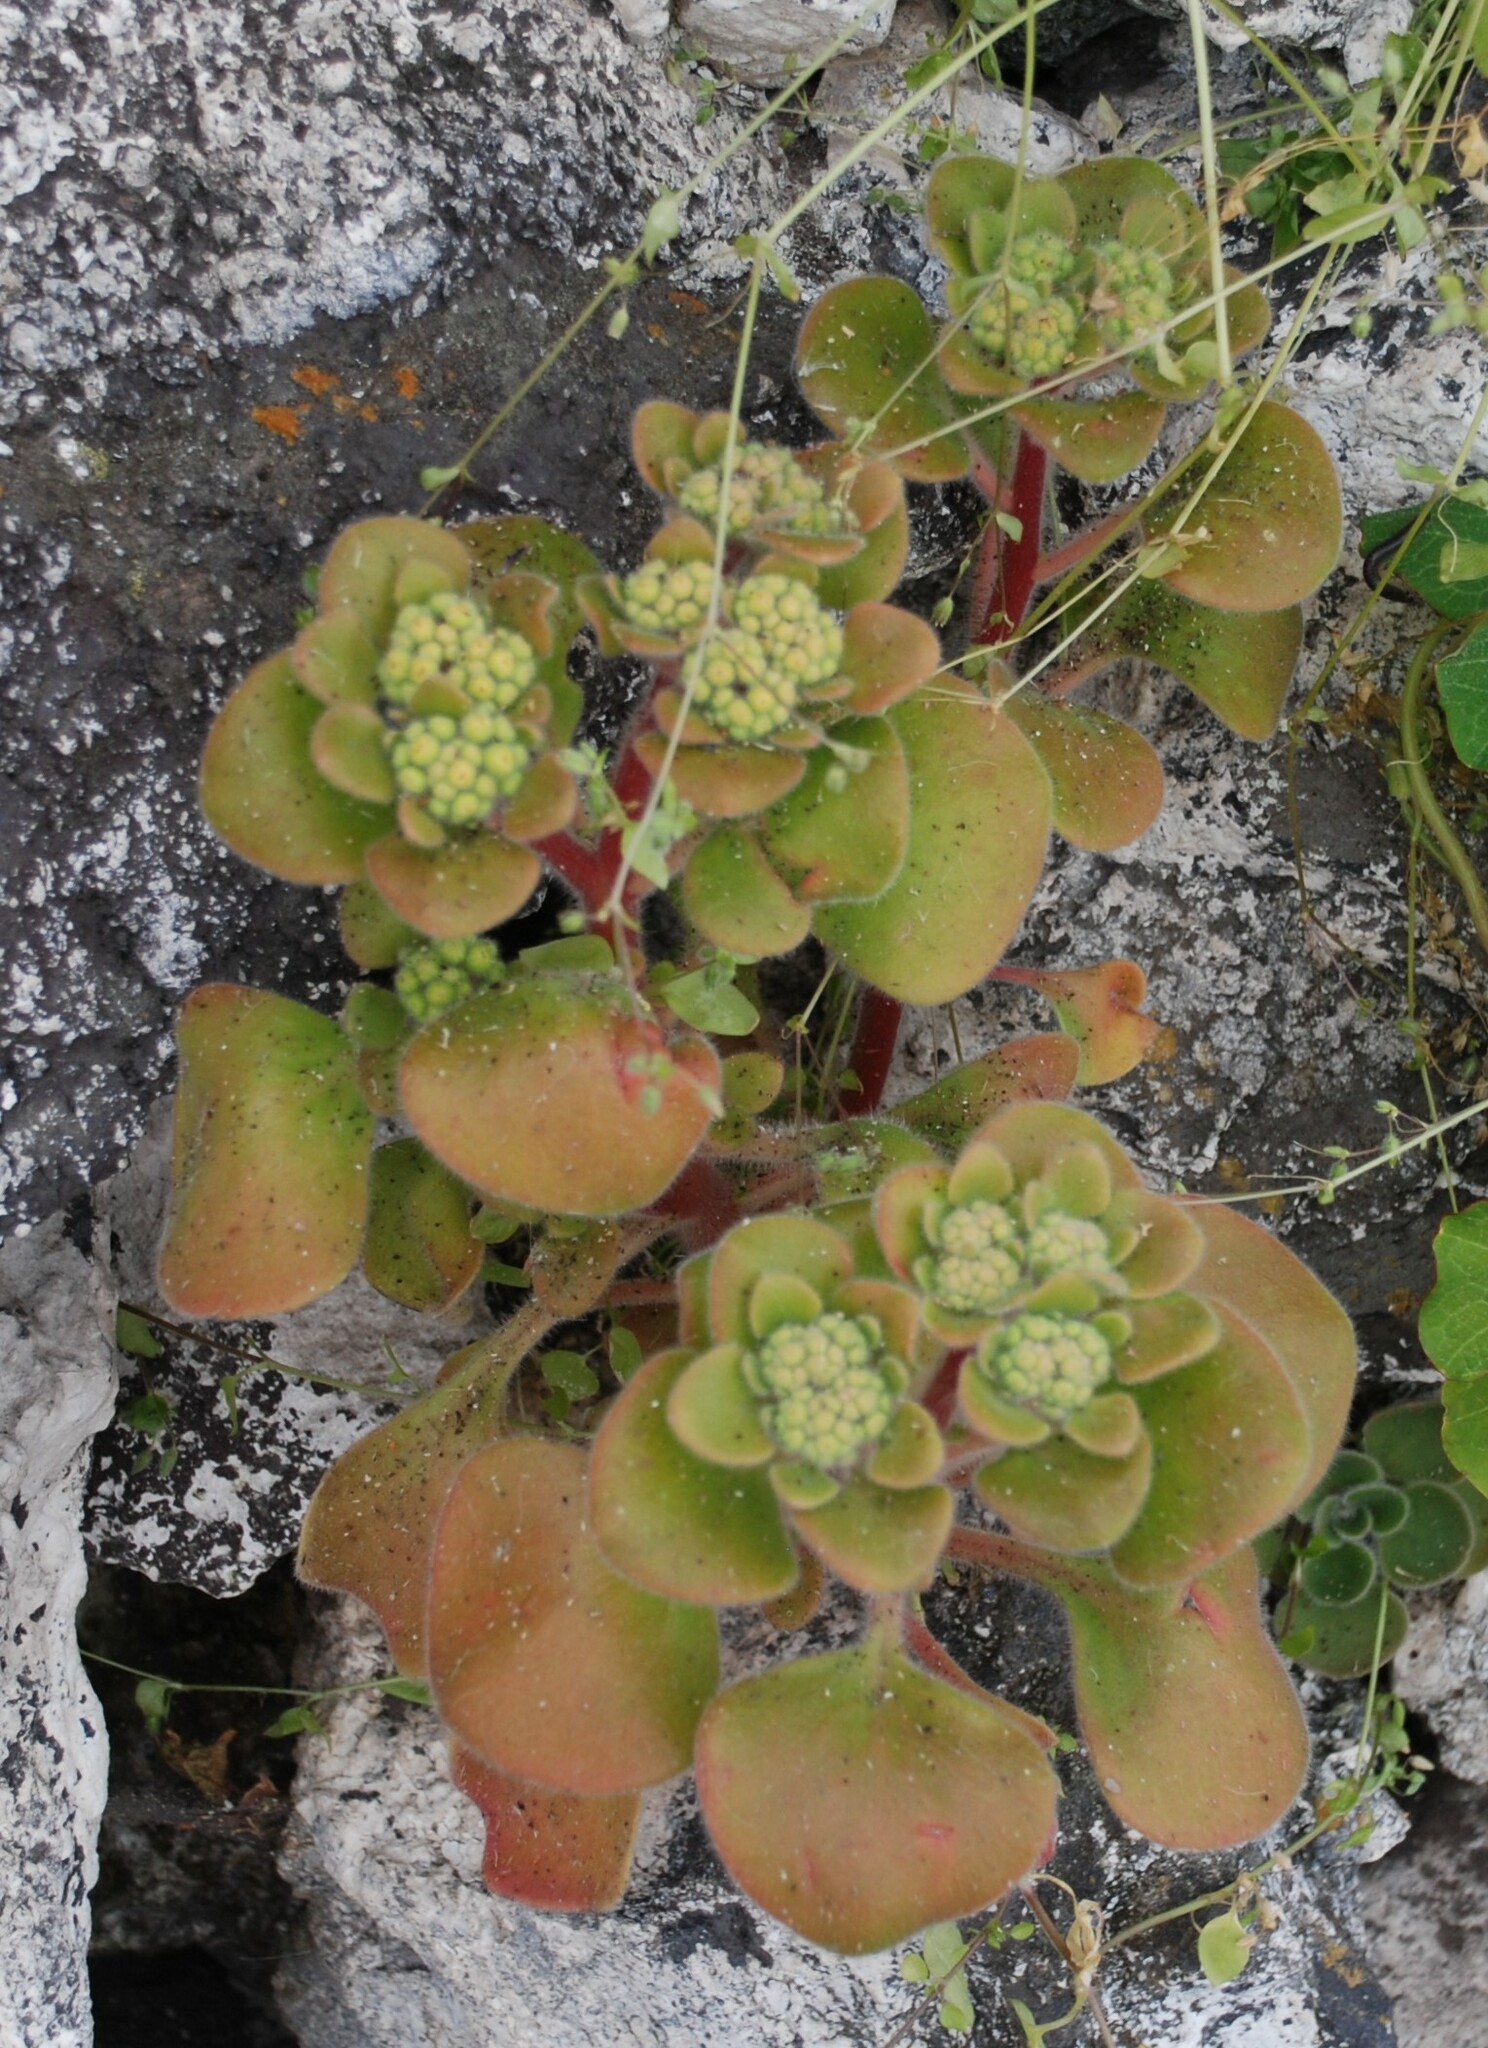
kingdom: Plantae
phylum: Tracheophyta
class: Magnoliopsida
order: Saxifragales
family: Crassulaceae
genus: Aichryson
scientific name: Aichryson laxum
